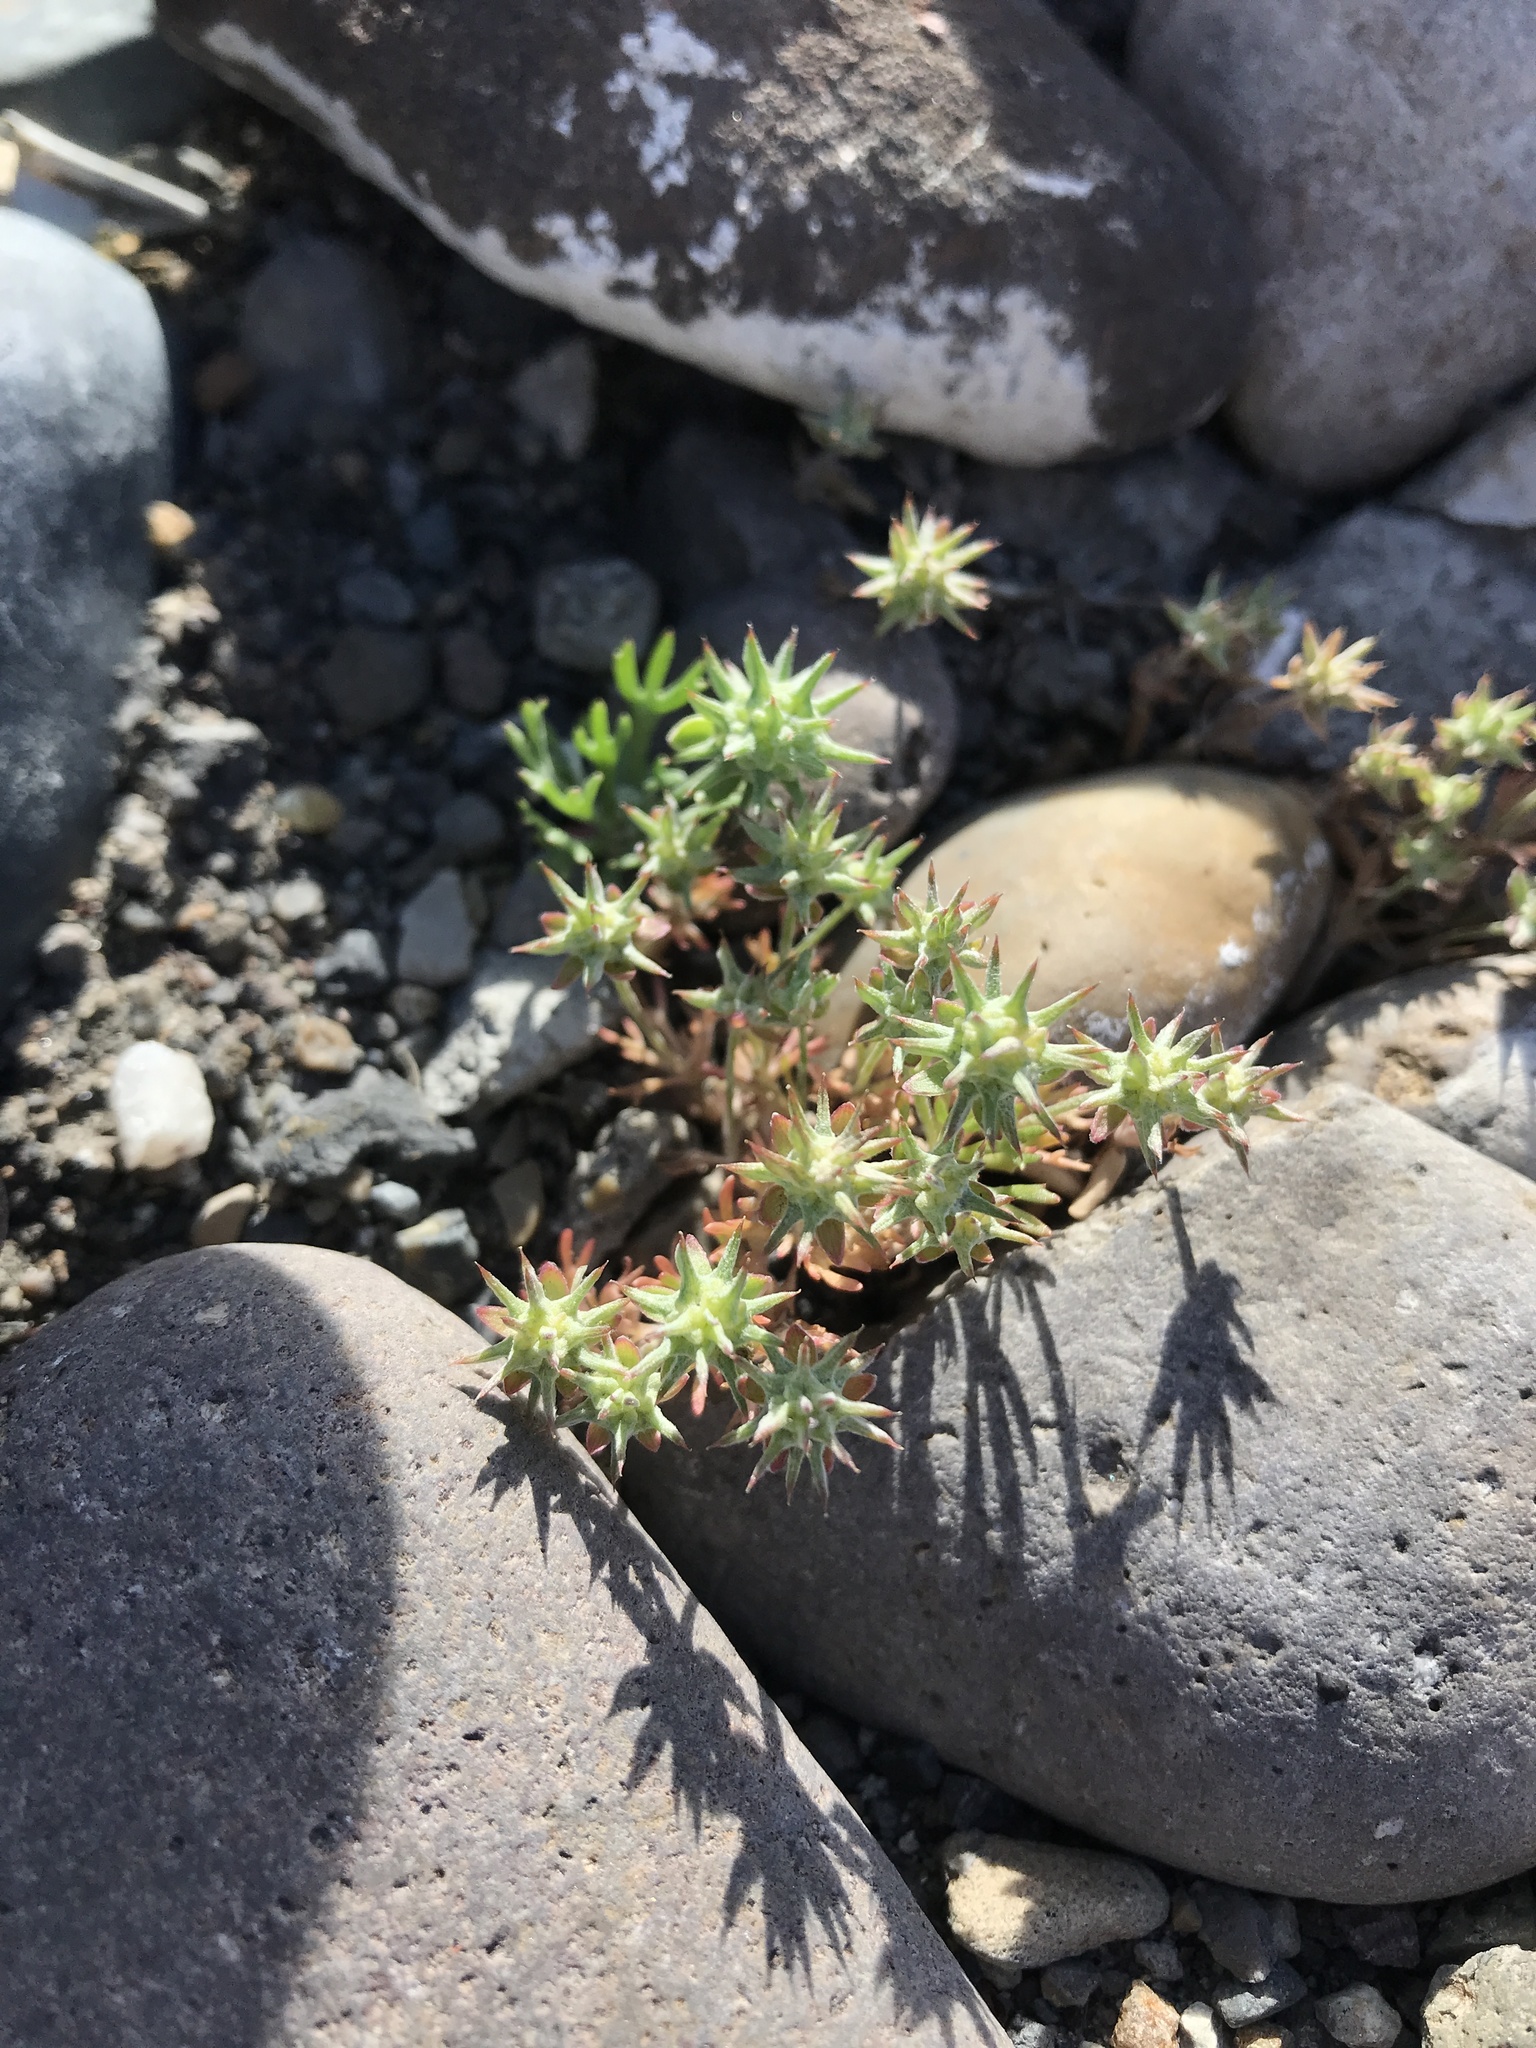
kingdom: Plantae
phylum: Tracheophyta
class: Magnoliopsida
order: Ranunculales
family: Ranunculaceae
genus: Ceratocephala
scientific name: Ceratocephala orthoceras
